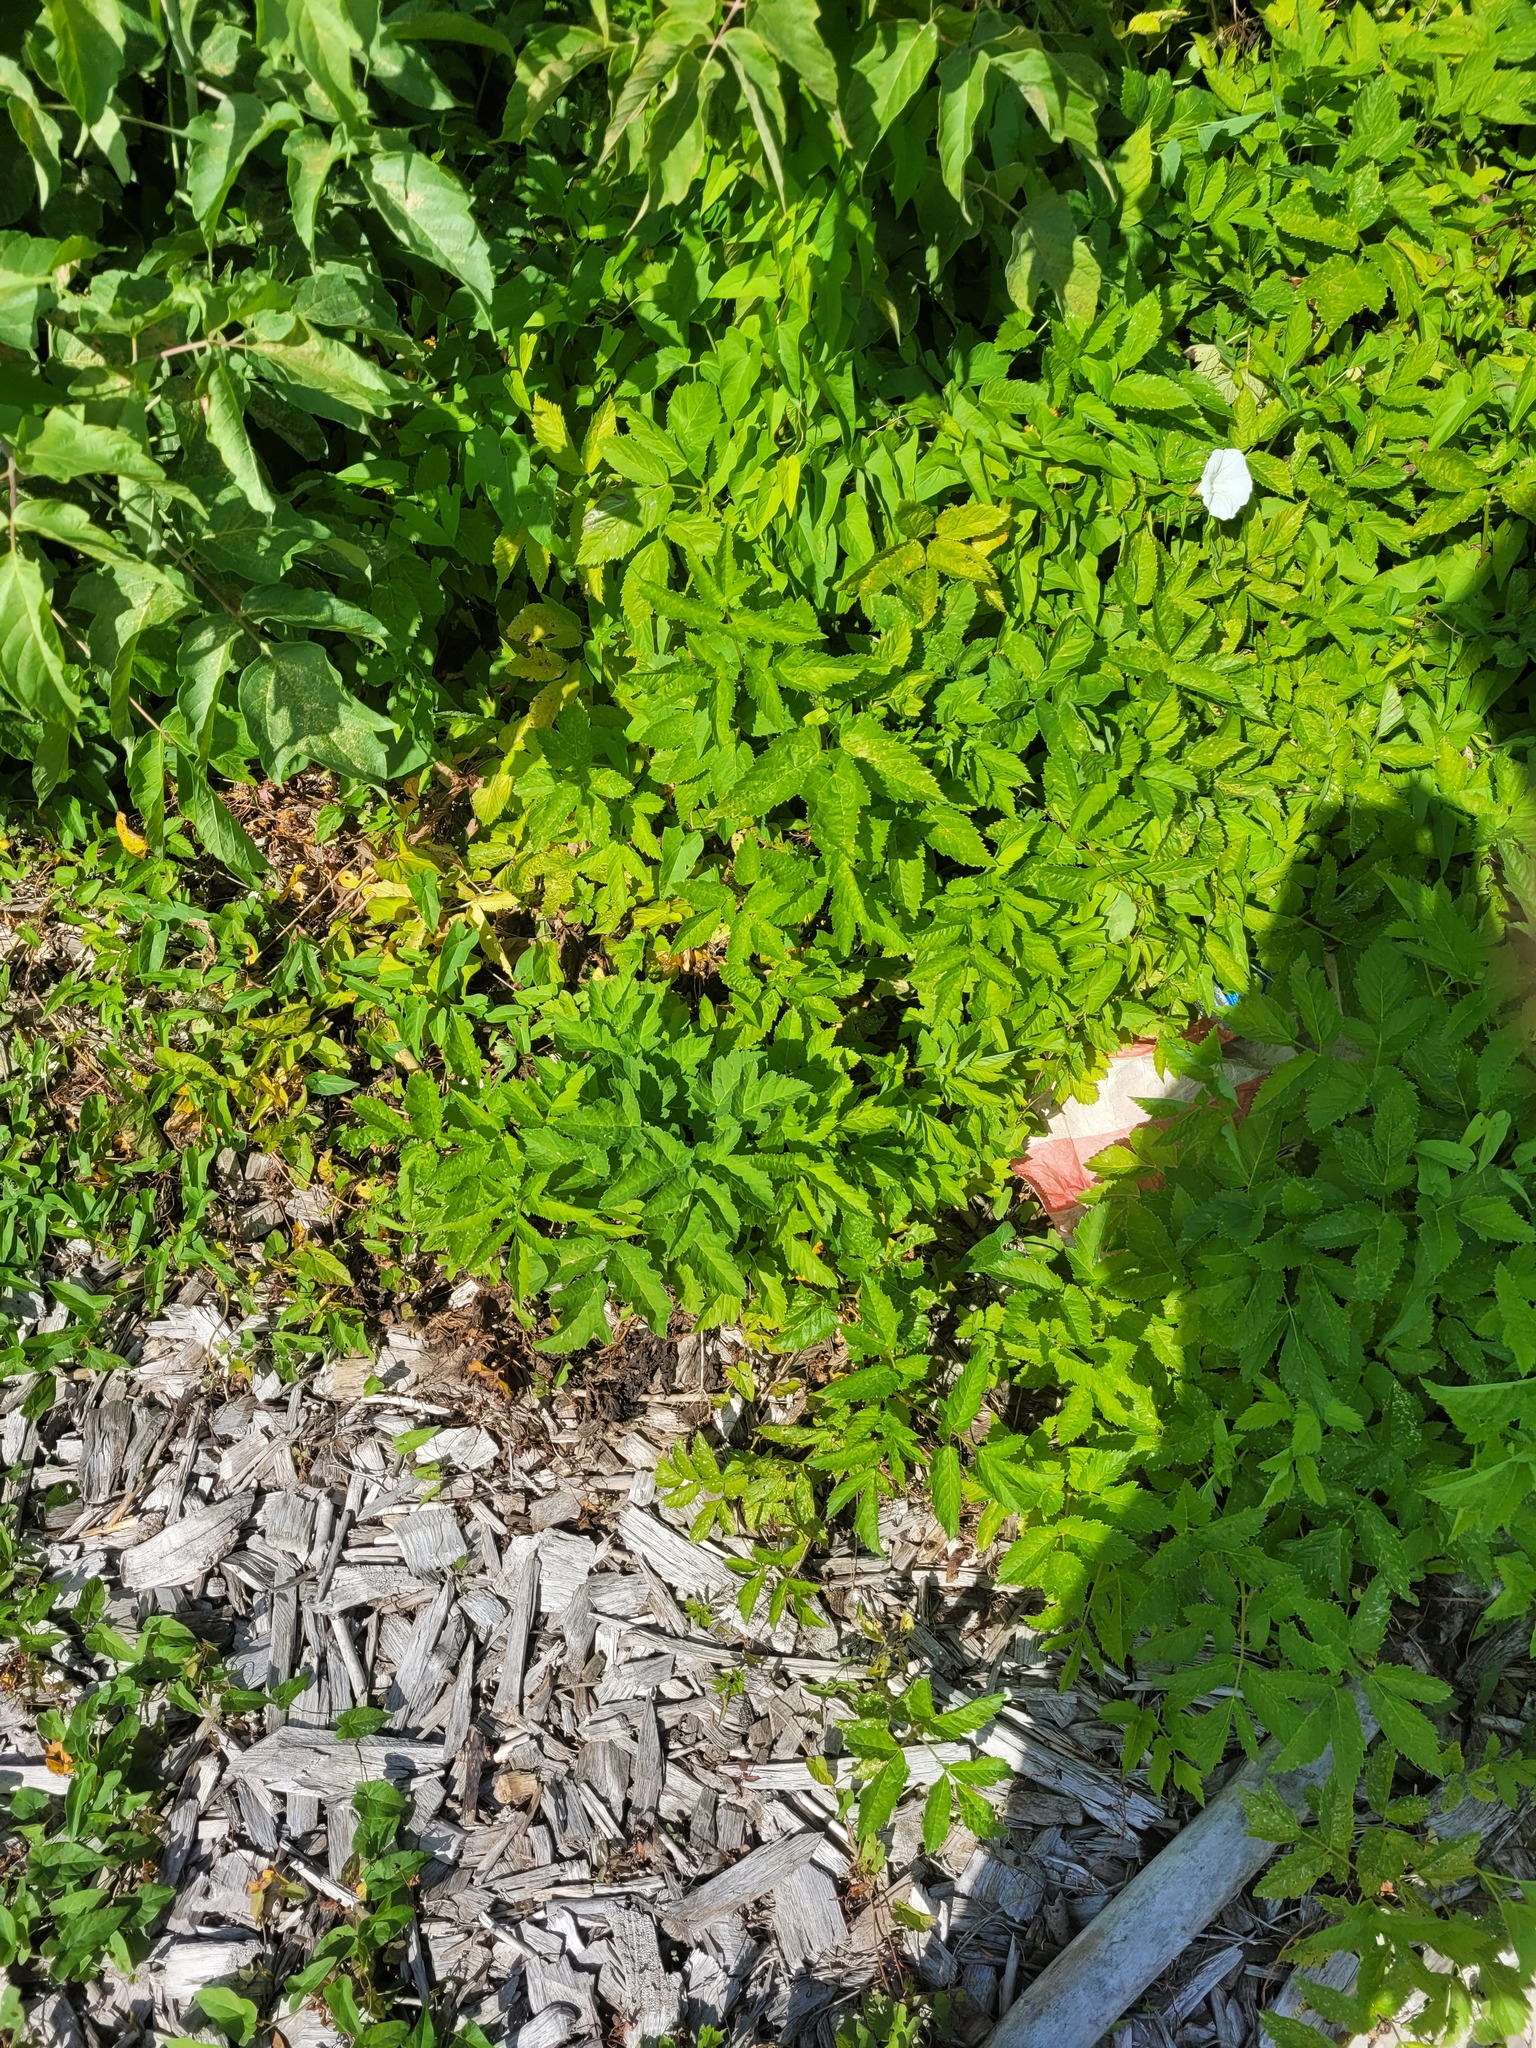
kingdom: Plantae
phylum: Tracheophyta
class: Magnoliopsida
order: Apiales
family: Apiaceae
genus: Aegopodium
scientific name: Aegopodium podagraria
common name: Ground-elder
